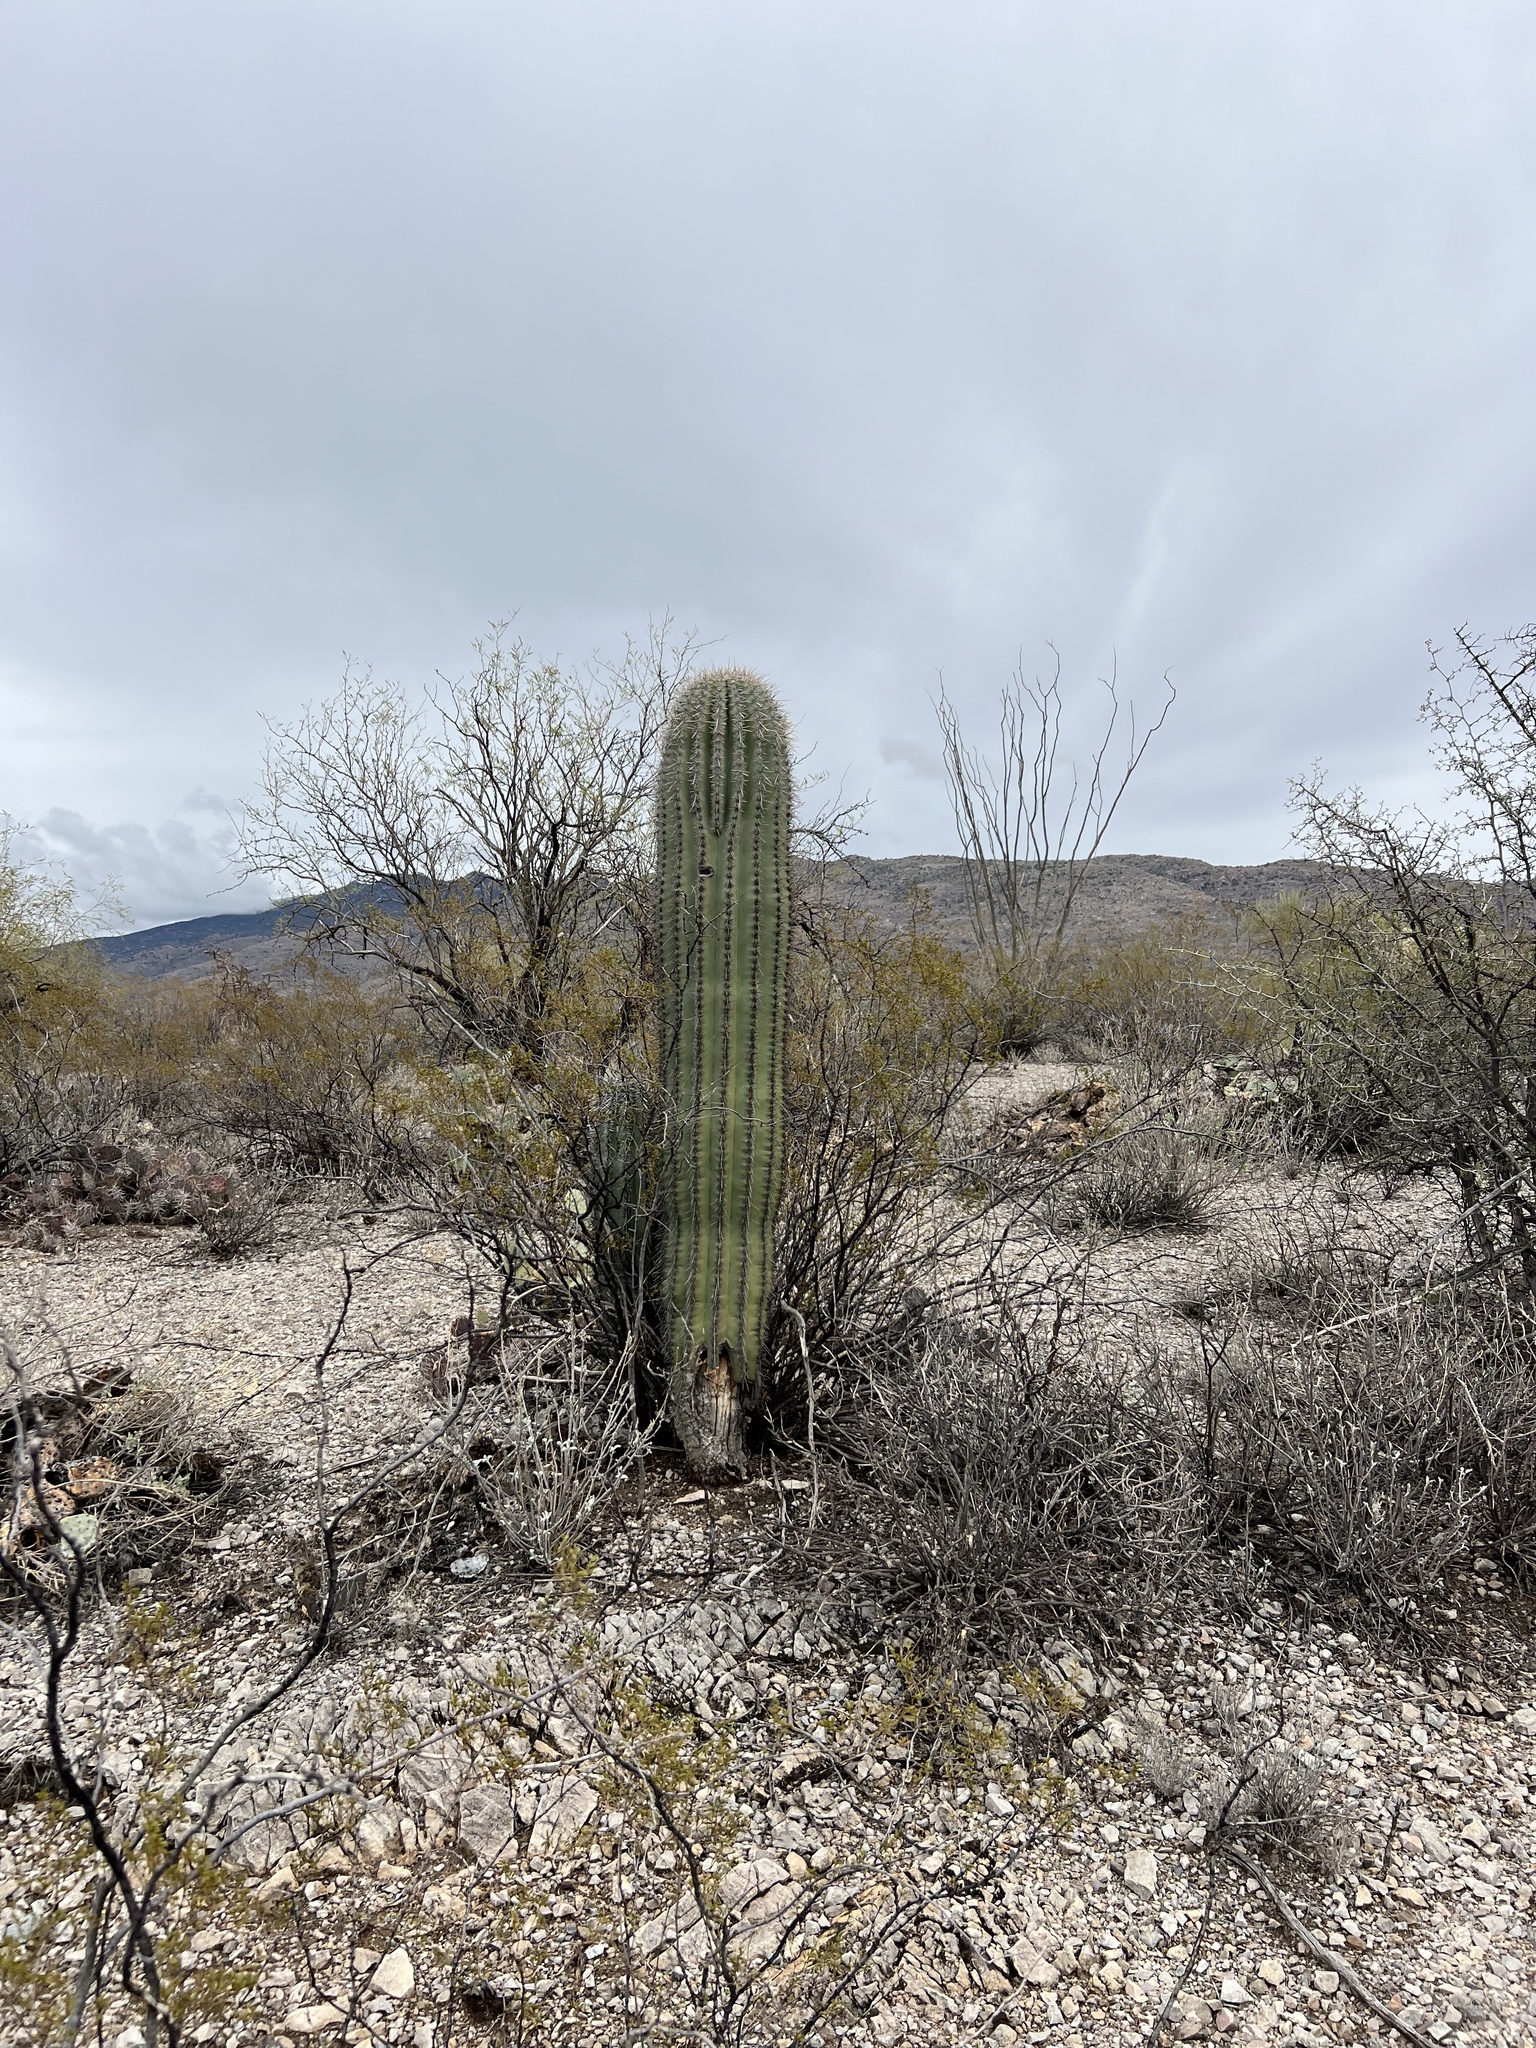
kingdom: Plantae
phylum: Tracheophyta
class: Magnoliopsida
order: Caryophyllales
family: Cactaceae
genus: Carnegiea
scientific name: Carnegiea gigantea
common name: Saguaro
